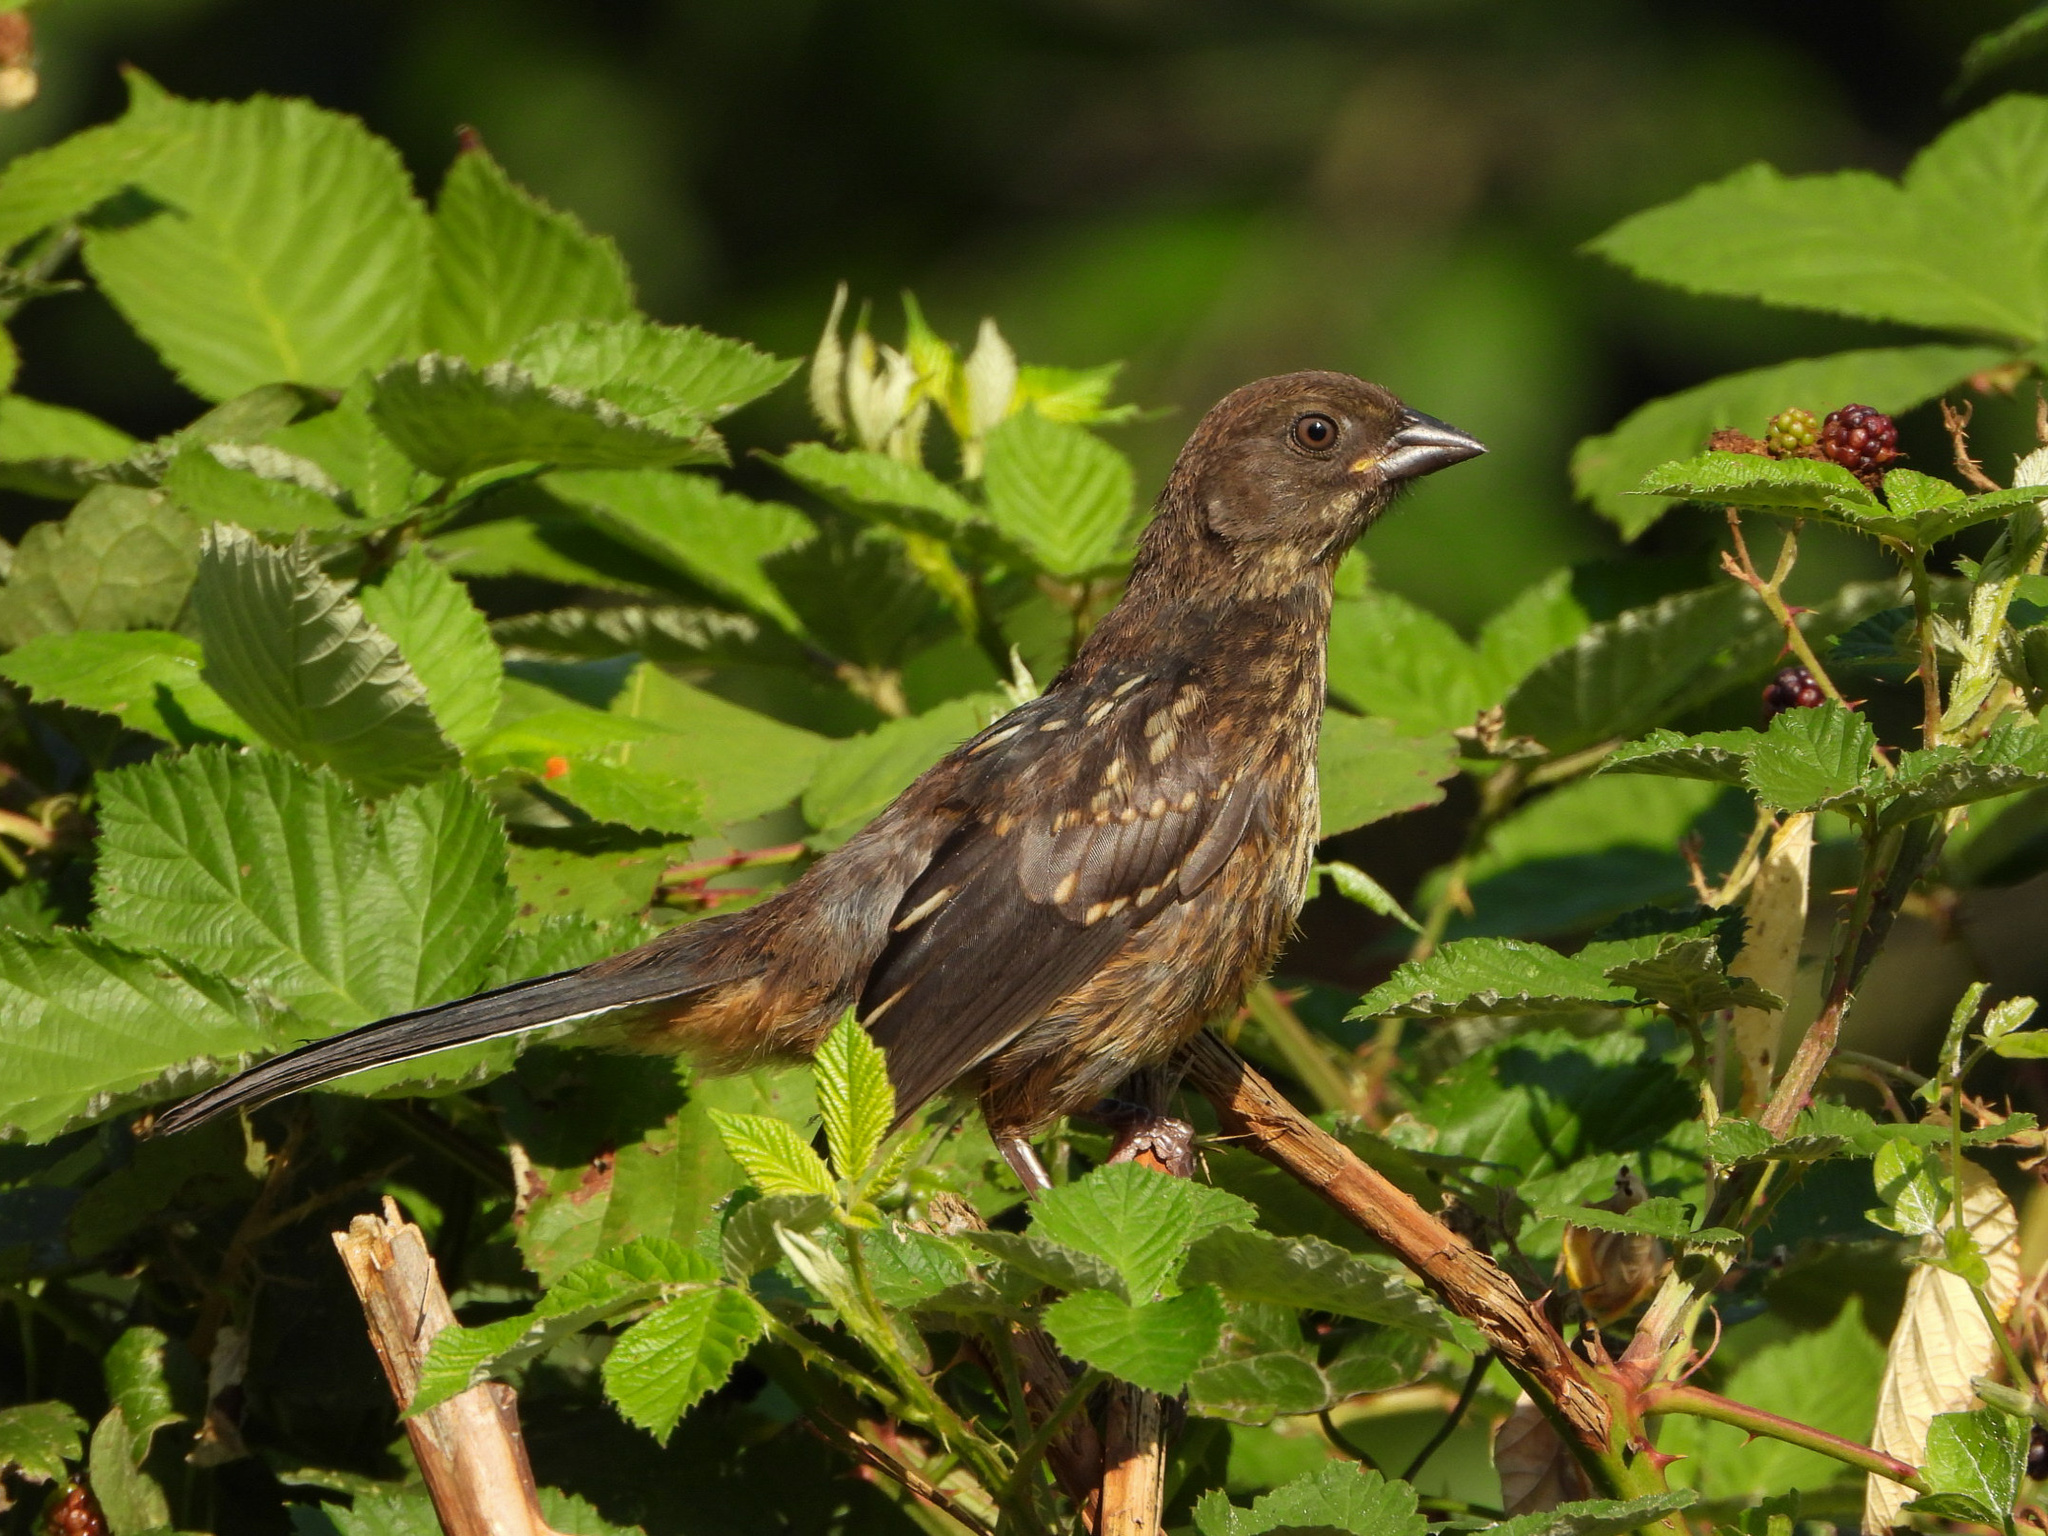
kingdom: Animalia
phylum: Chordata
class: Aves
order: Passeriformes
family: Passerellidae
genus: Pipilo
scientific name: Pipilo maculatus
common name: Spotted towhee
